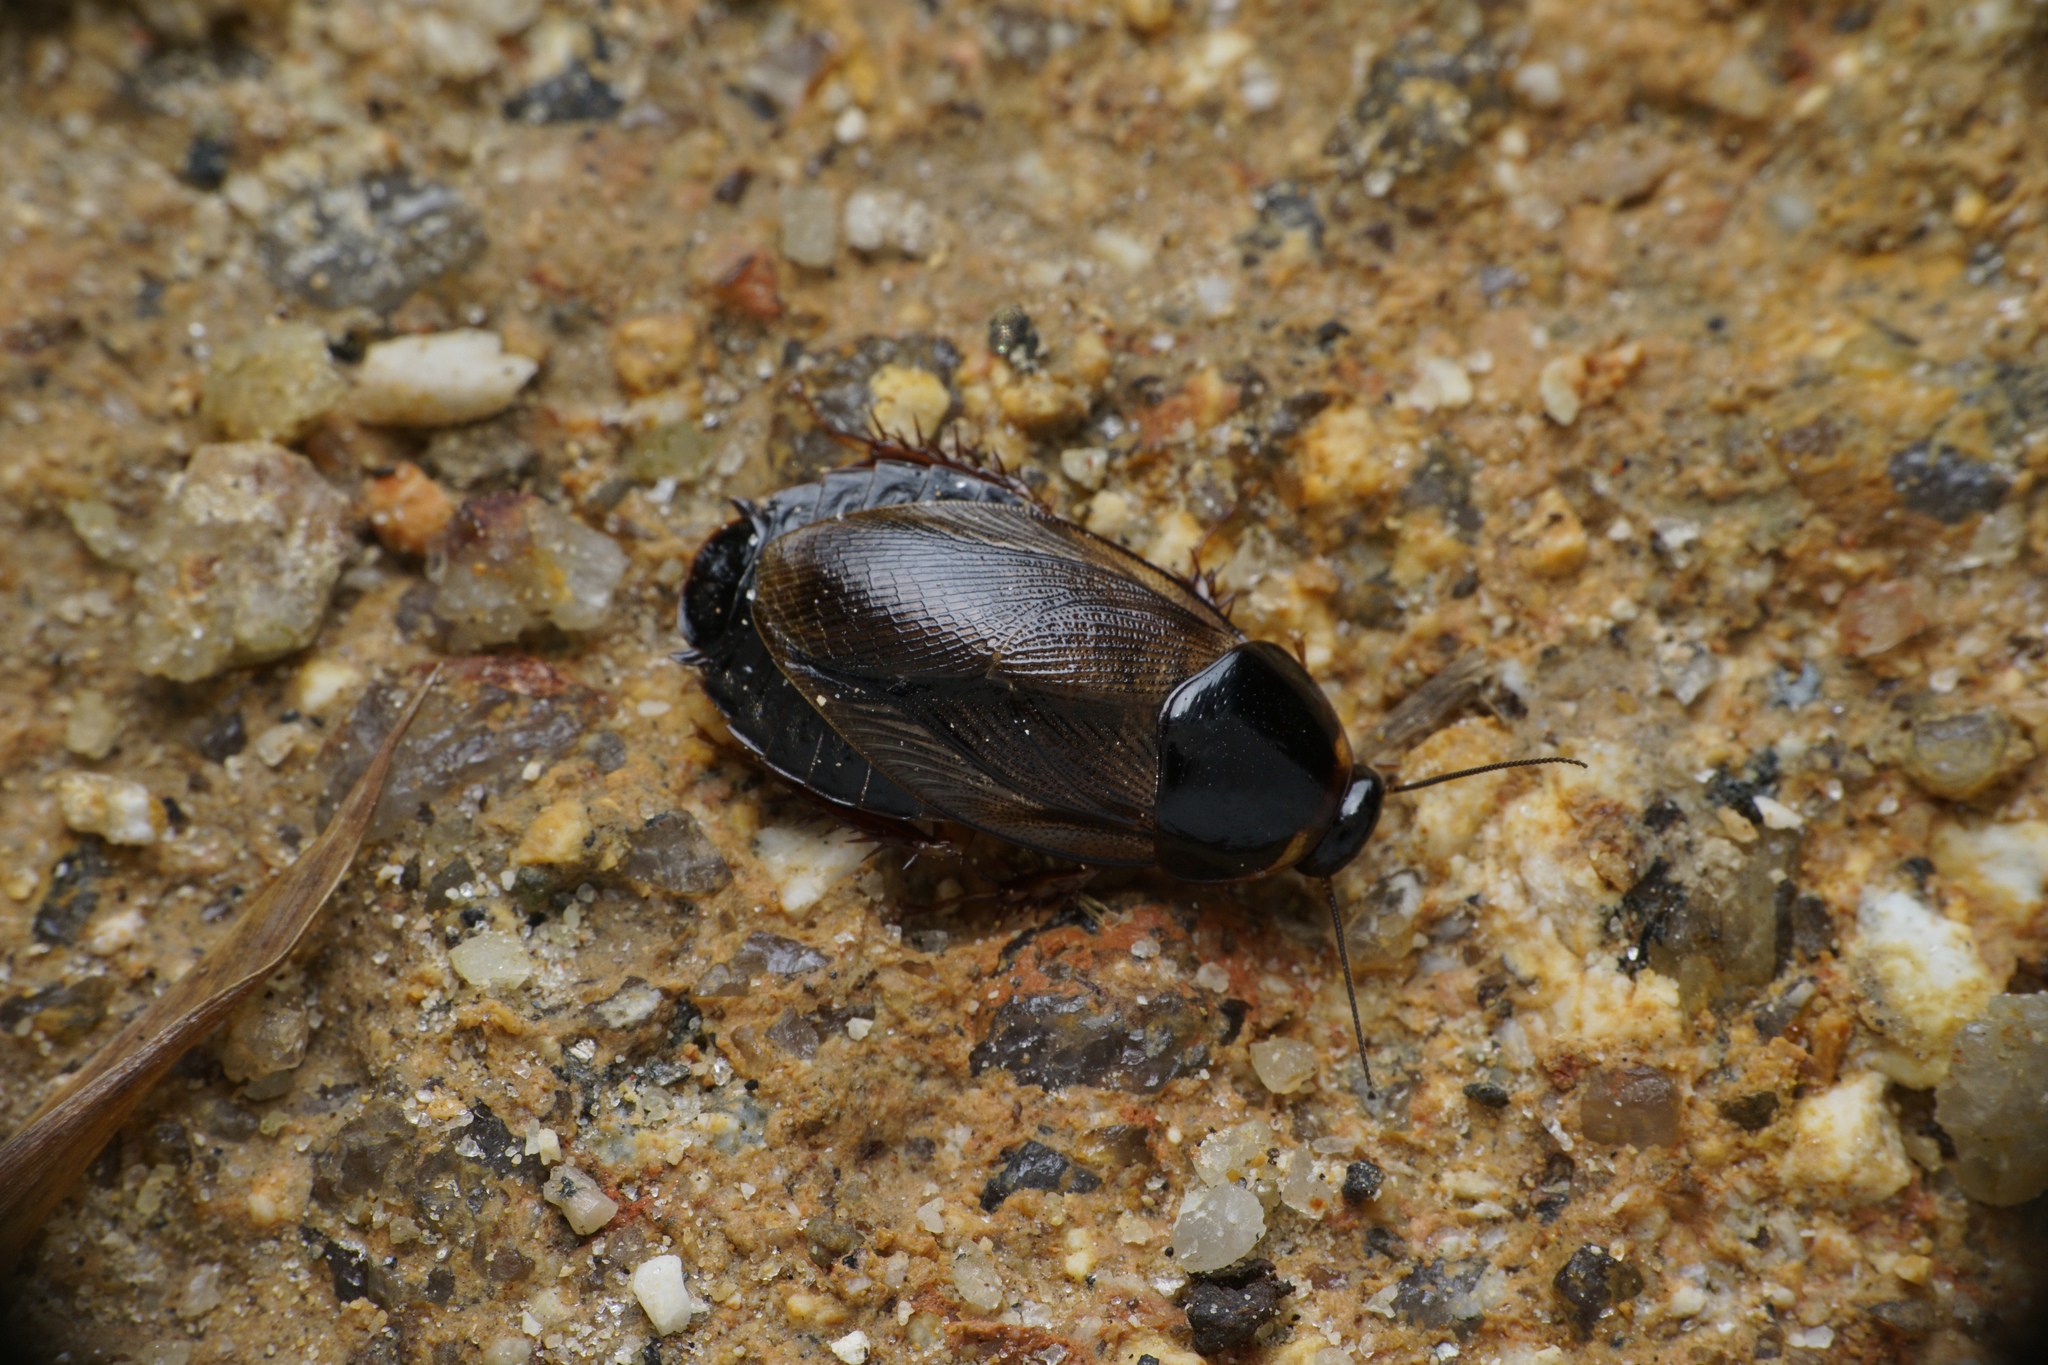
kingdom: Animalia
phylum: Arthropoda
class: Insecta
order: Blattodea
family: Blaberidae
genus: Pycnoscelus
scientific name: Pycnoscelus surinamensis
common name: Surinam cockroach
